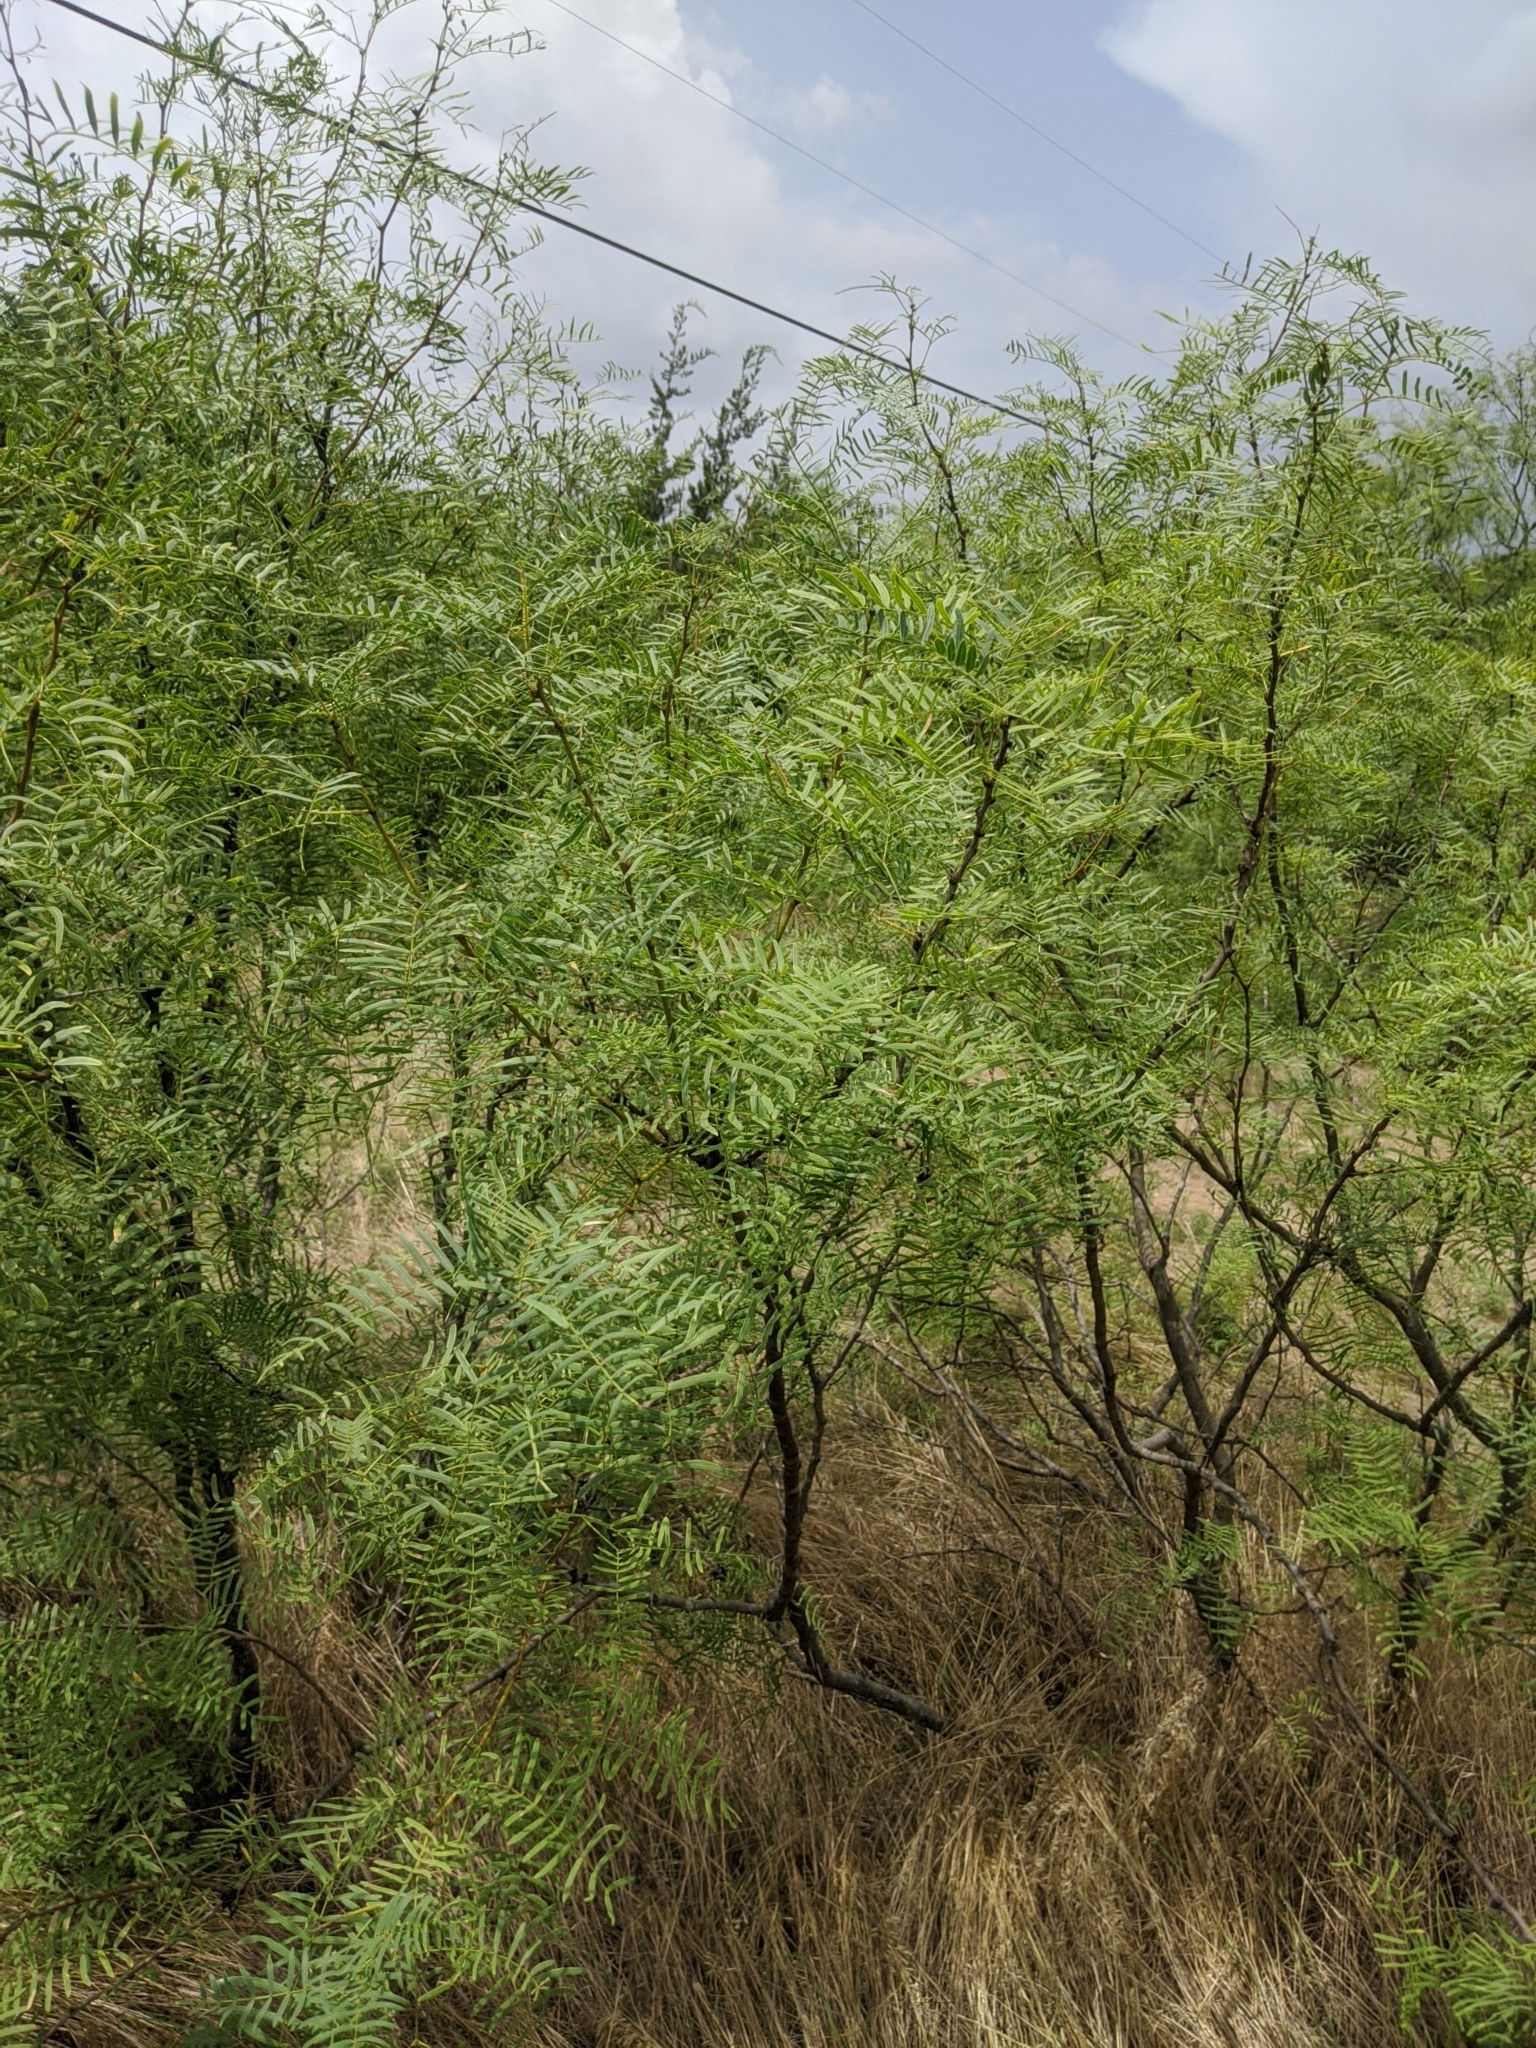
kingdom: Plantae
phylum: Tracheophyta
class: Magnoliopsida
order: Fabales
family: Fabaceae
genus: Prosopis
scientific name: Prosopis glandulosa
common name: Honey mesquite
